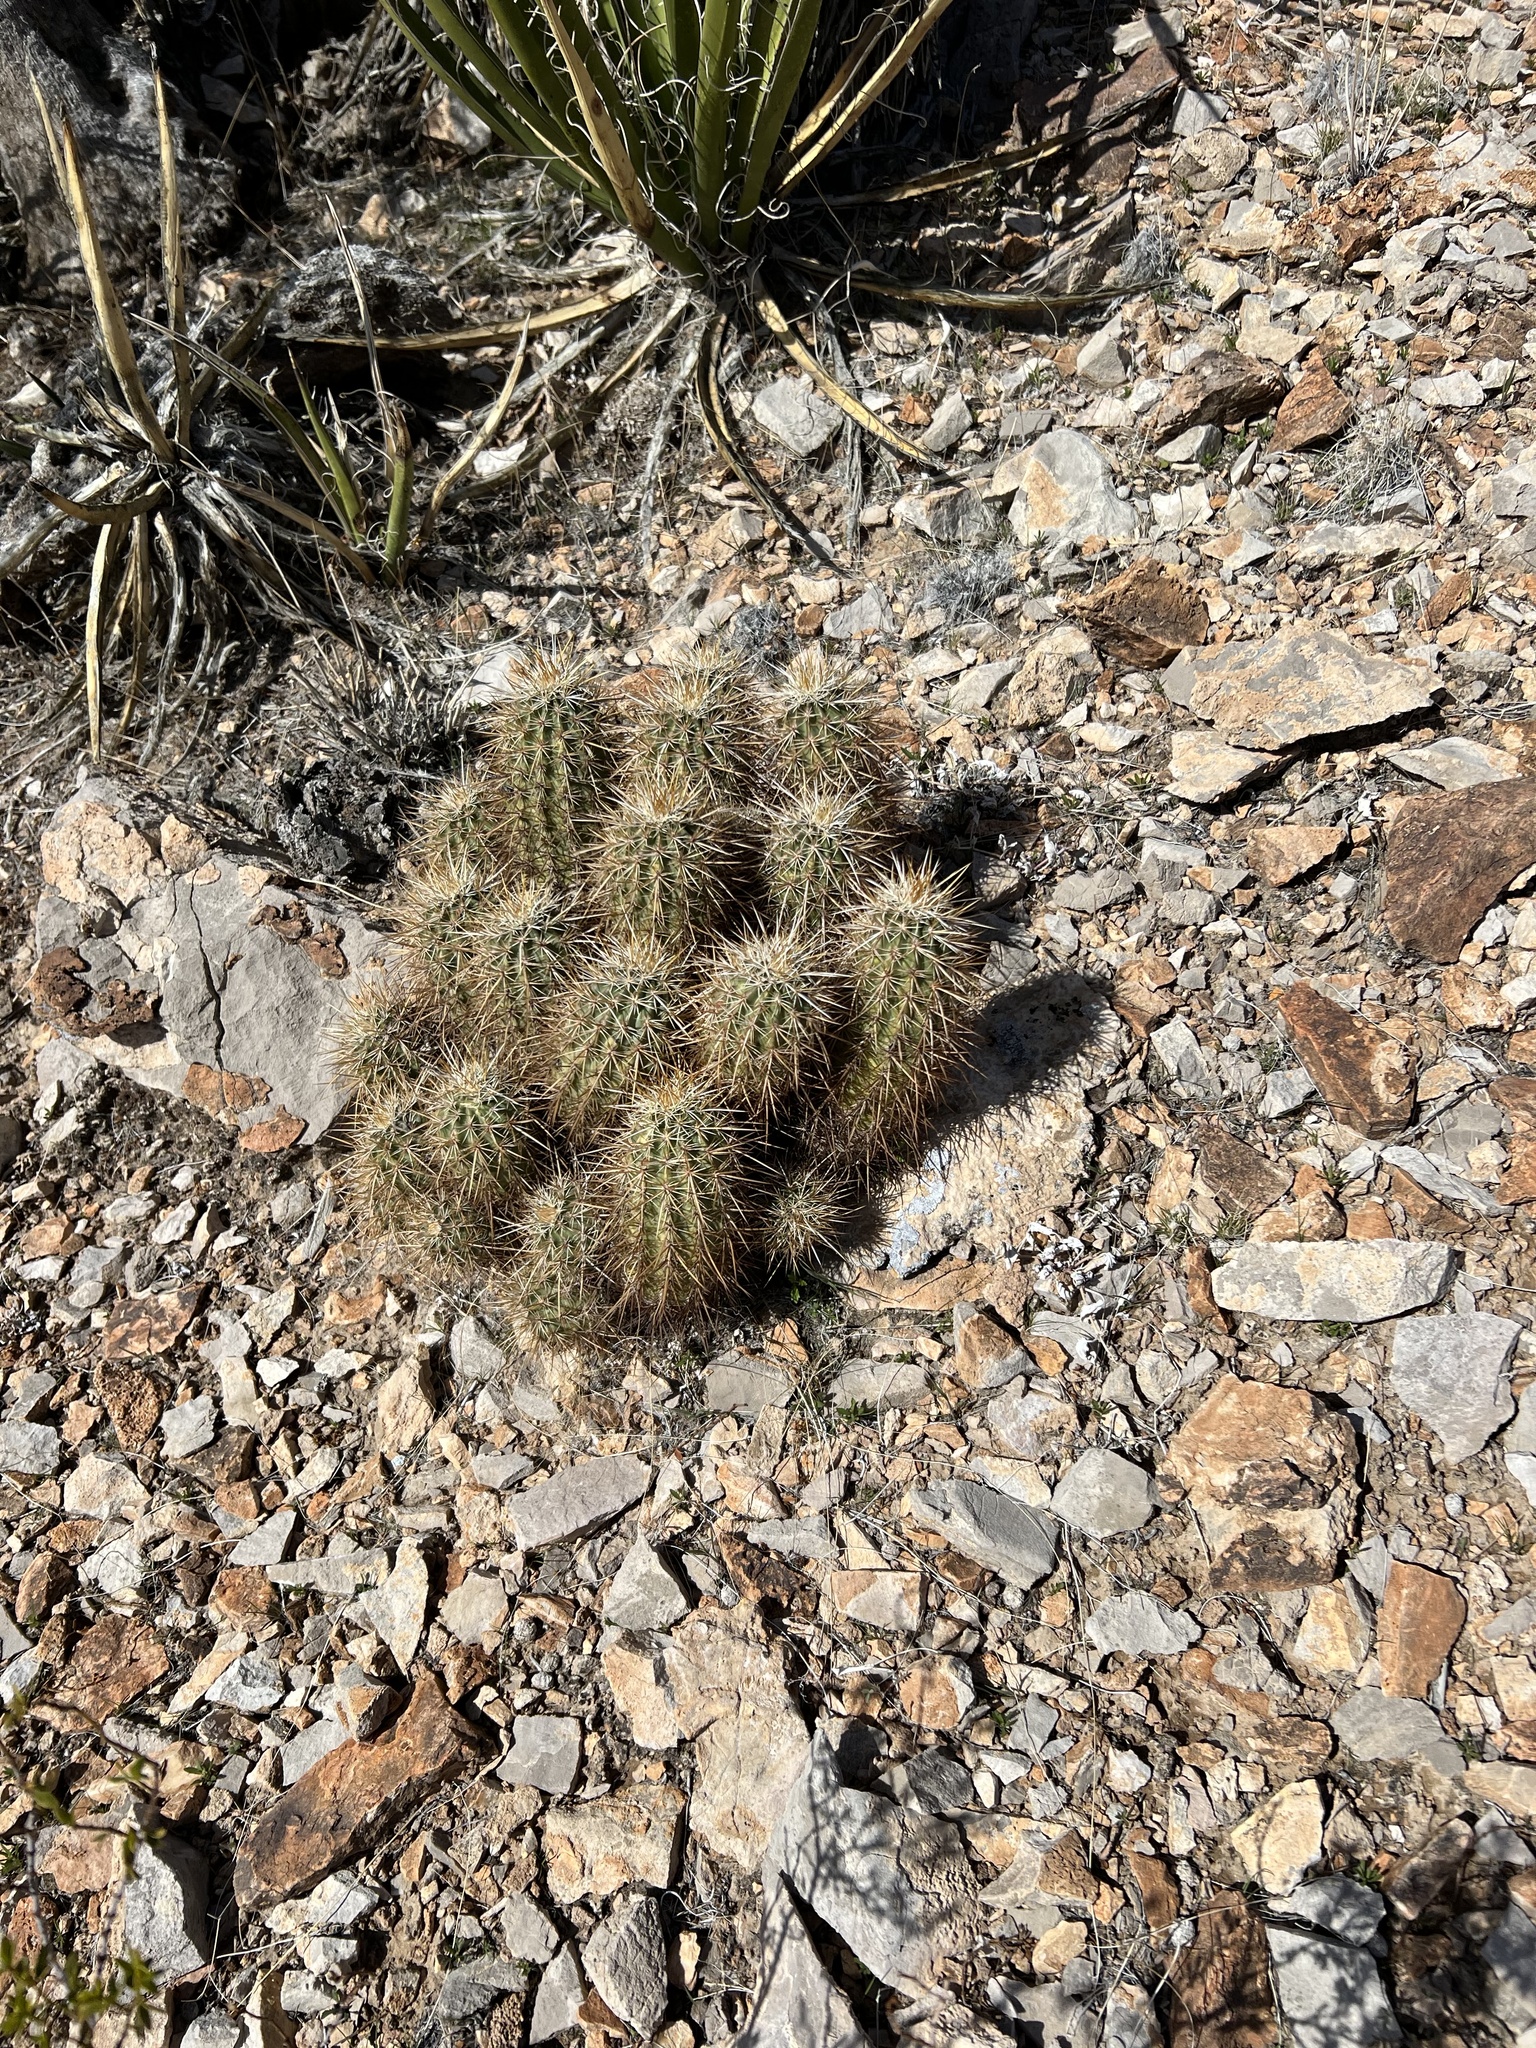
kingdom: Plantae
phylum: Tracheophyta
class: Magnoliopsida
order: Caryophyllales
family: Cactaceae
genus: Echinocereus
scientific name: Echinocereus engelmannii
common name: Engelmann's hedgehog cactus
